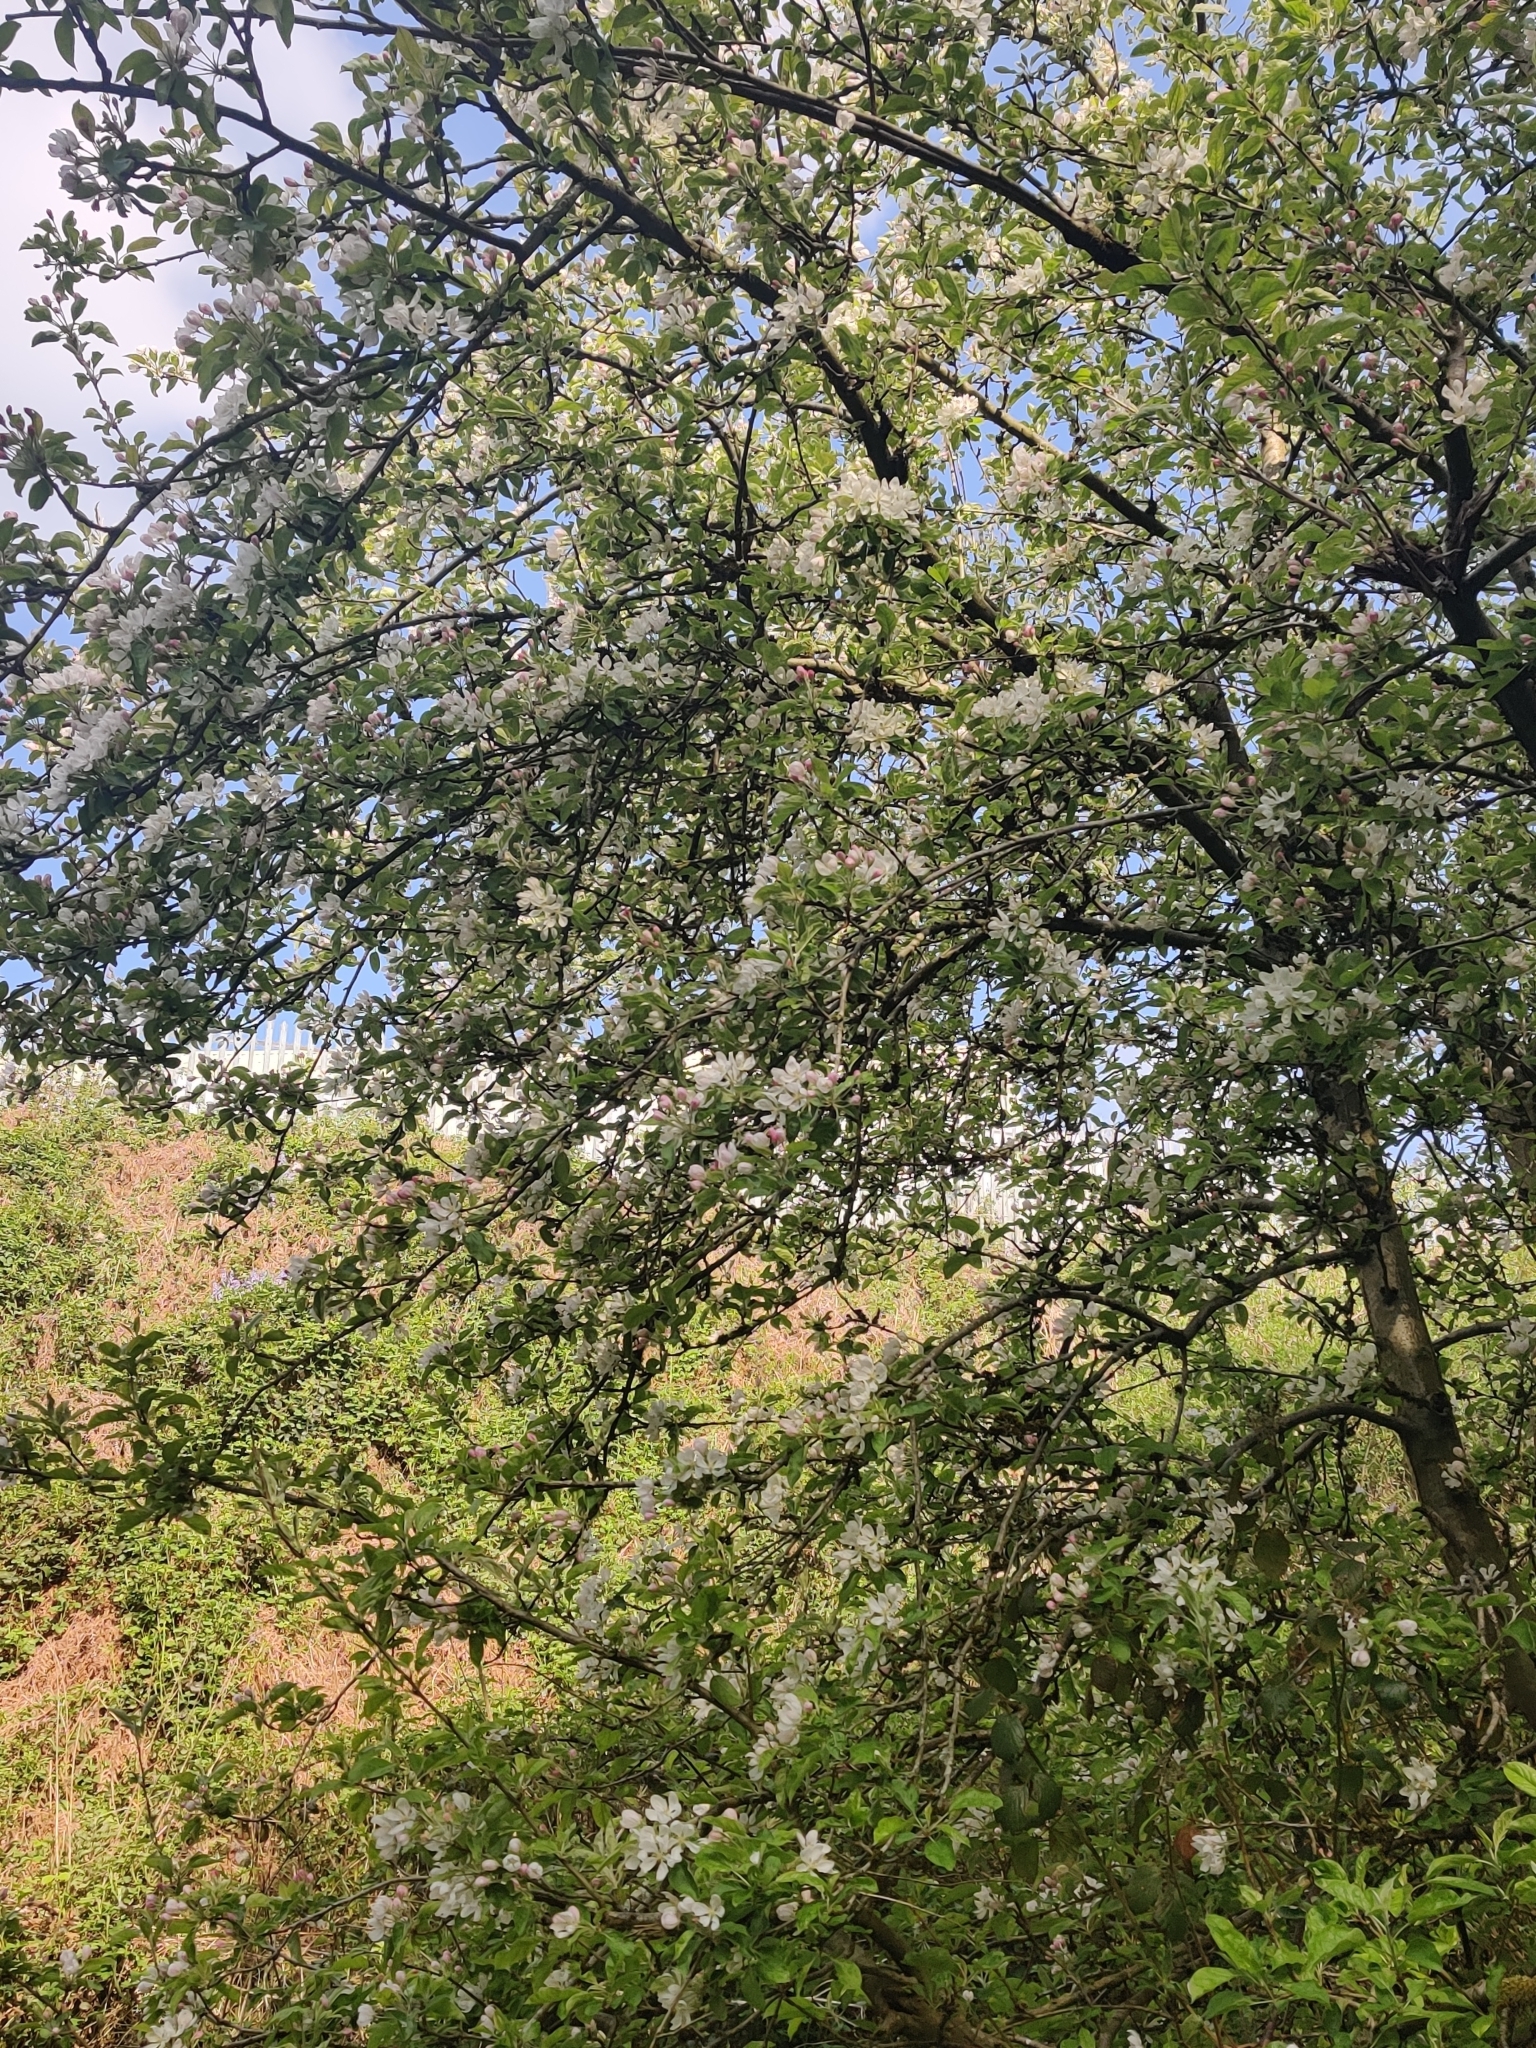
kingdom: Plantae
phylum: Tracheophyta
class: Magnoliopsida
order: Rosales
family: Rosaceae
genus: Malus
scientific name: Malus domestica
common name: Apple
